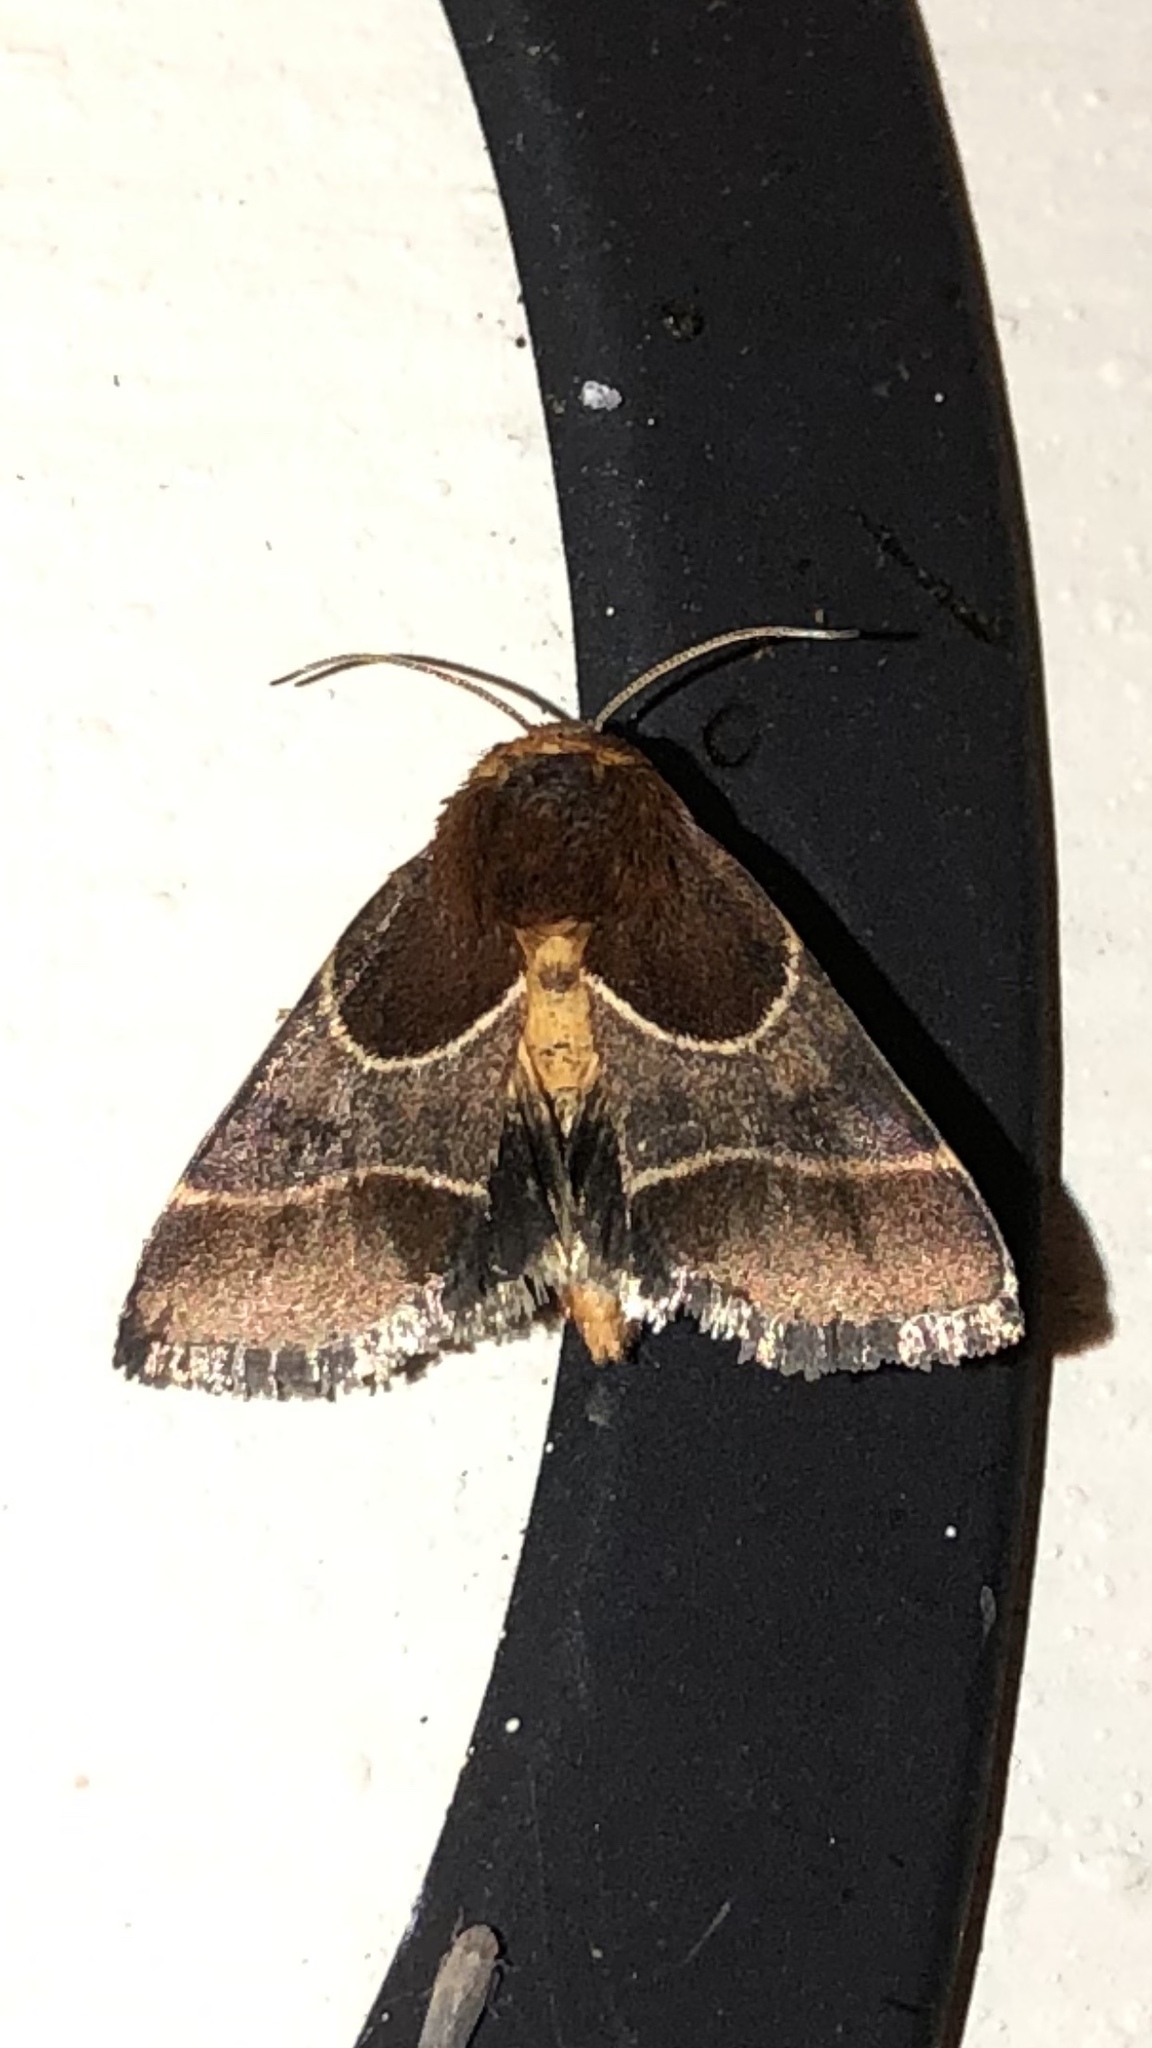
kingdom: Animalia
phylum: Arthropoda
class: Insecta
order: Lepidoptera
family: Noctuidae
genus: Schinia
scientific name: Schinia arcigera
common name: Arcigera flower moth
